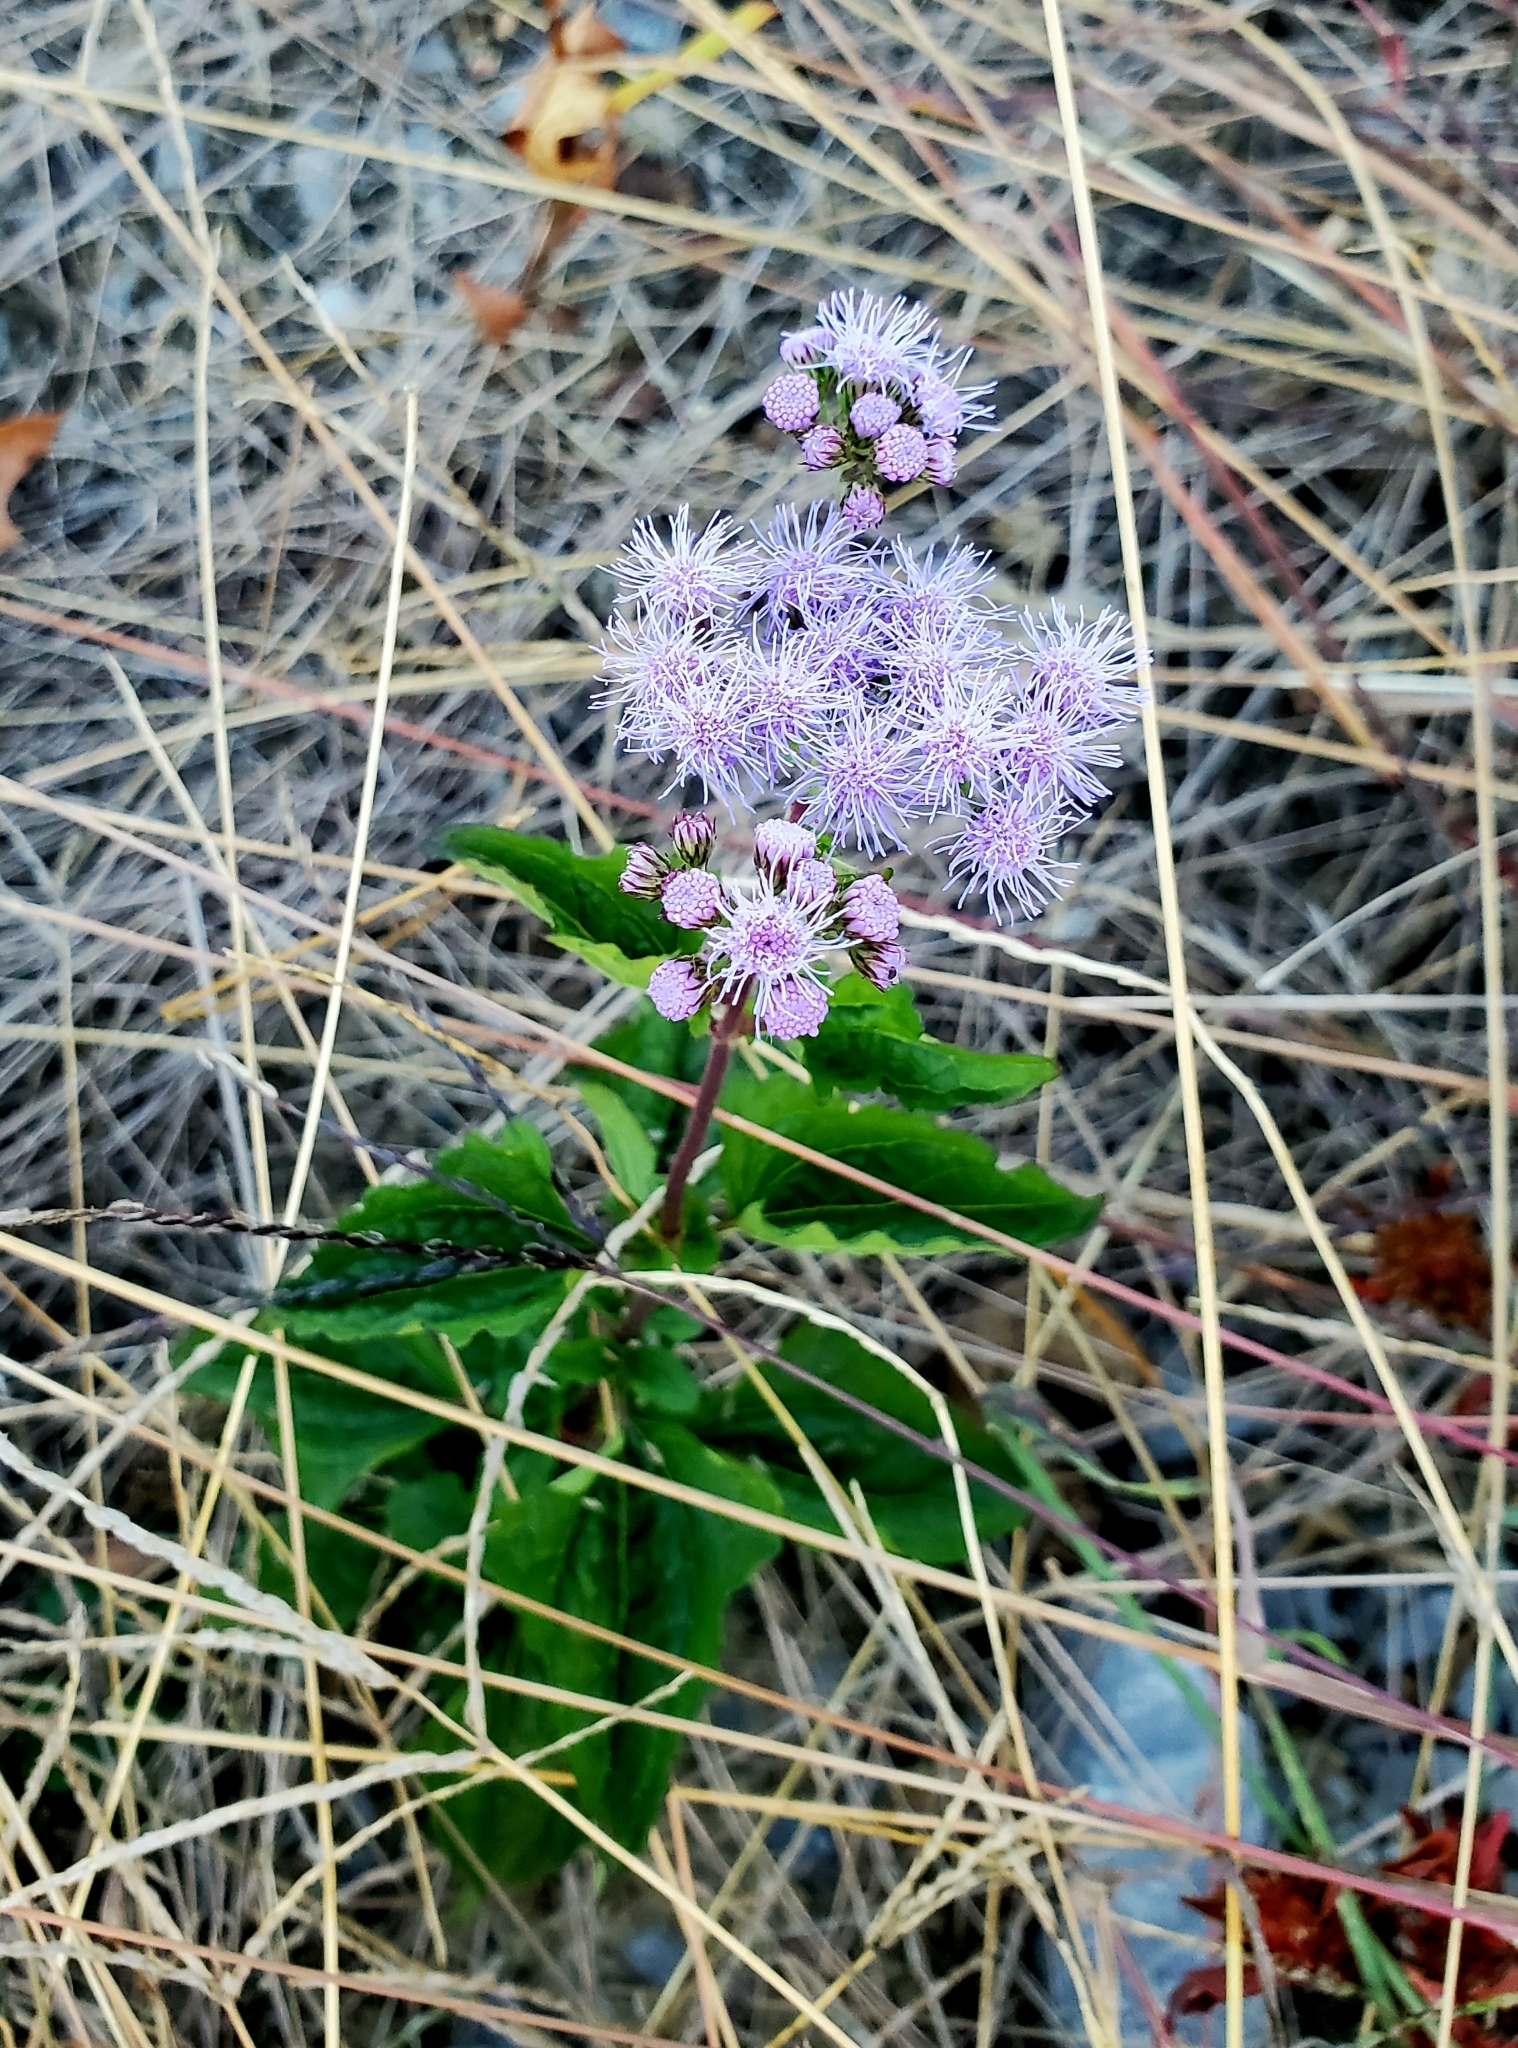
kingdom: Plantae
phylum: Tracheophyta
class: Magnoliopsida
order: Asterales
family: Asteraceae
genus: Conoclinium
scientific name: Conoclinium coelestinum
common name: Blue mistflower
